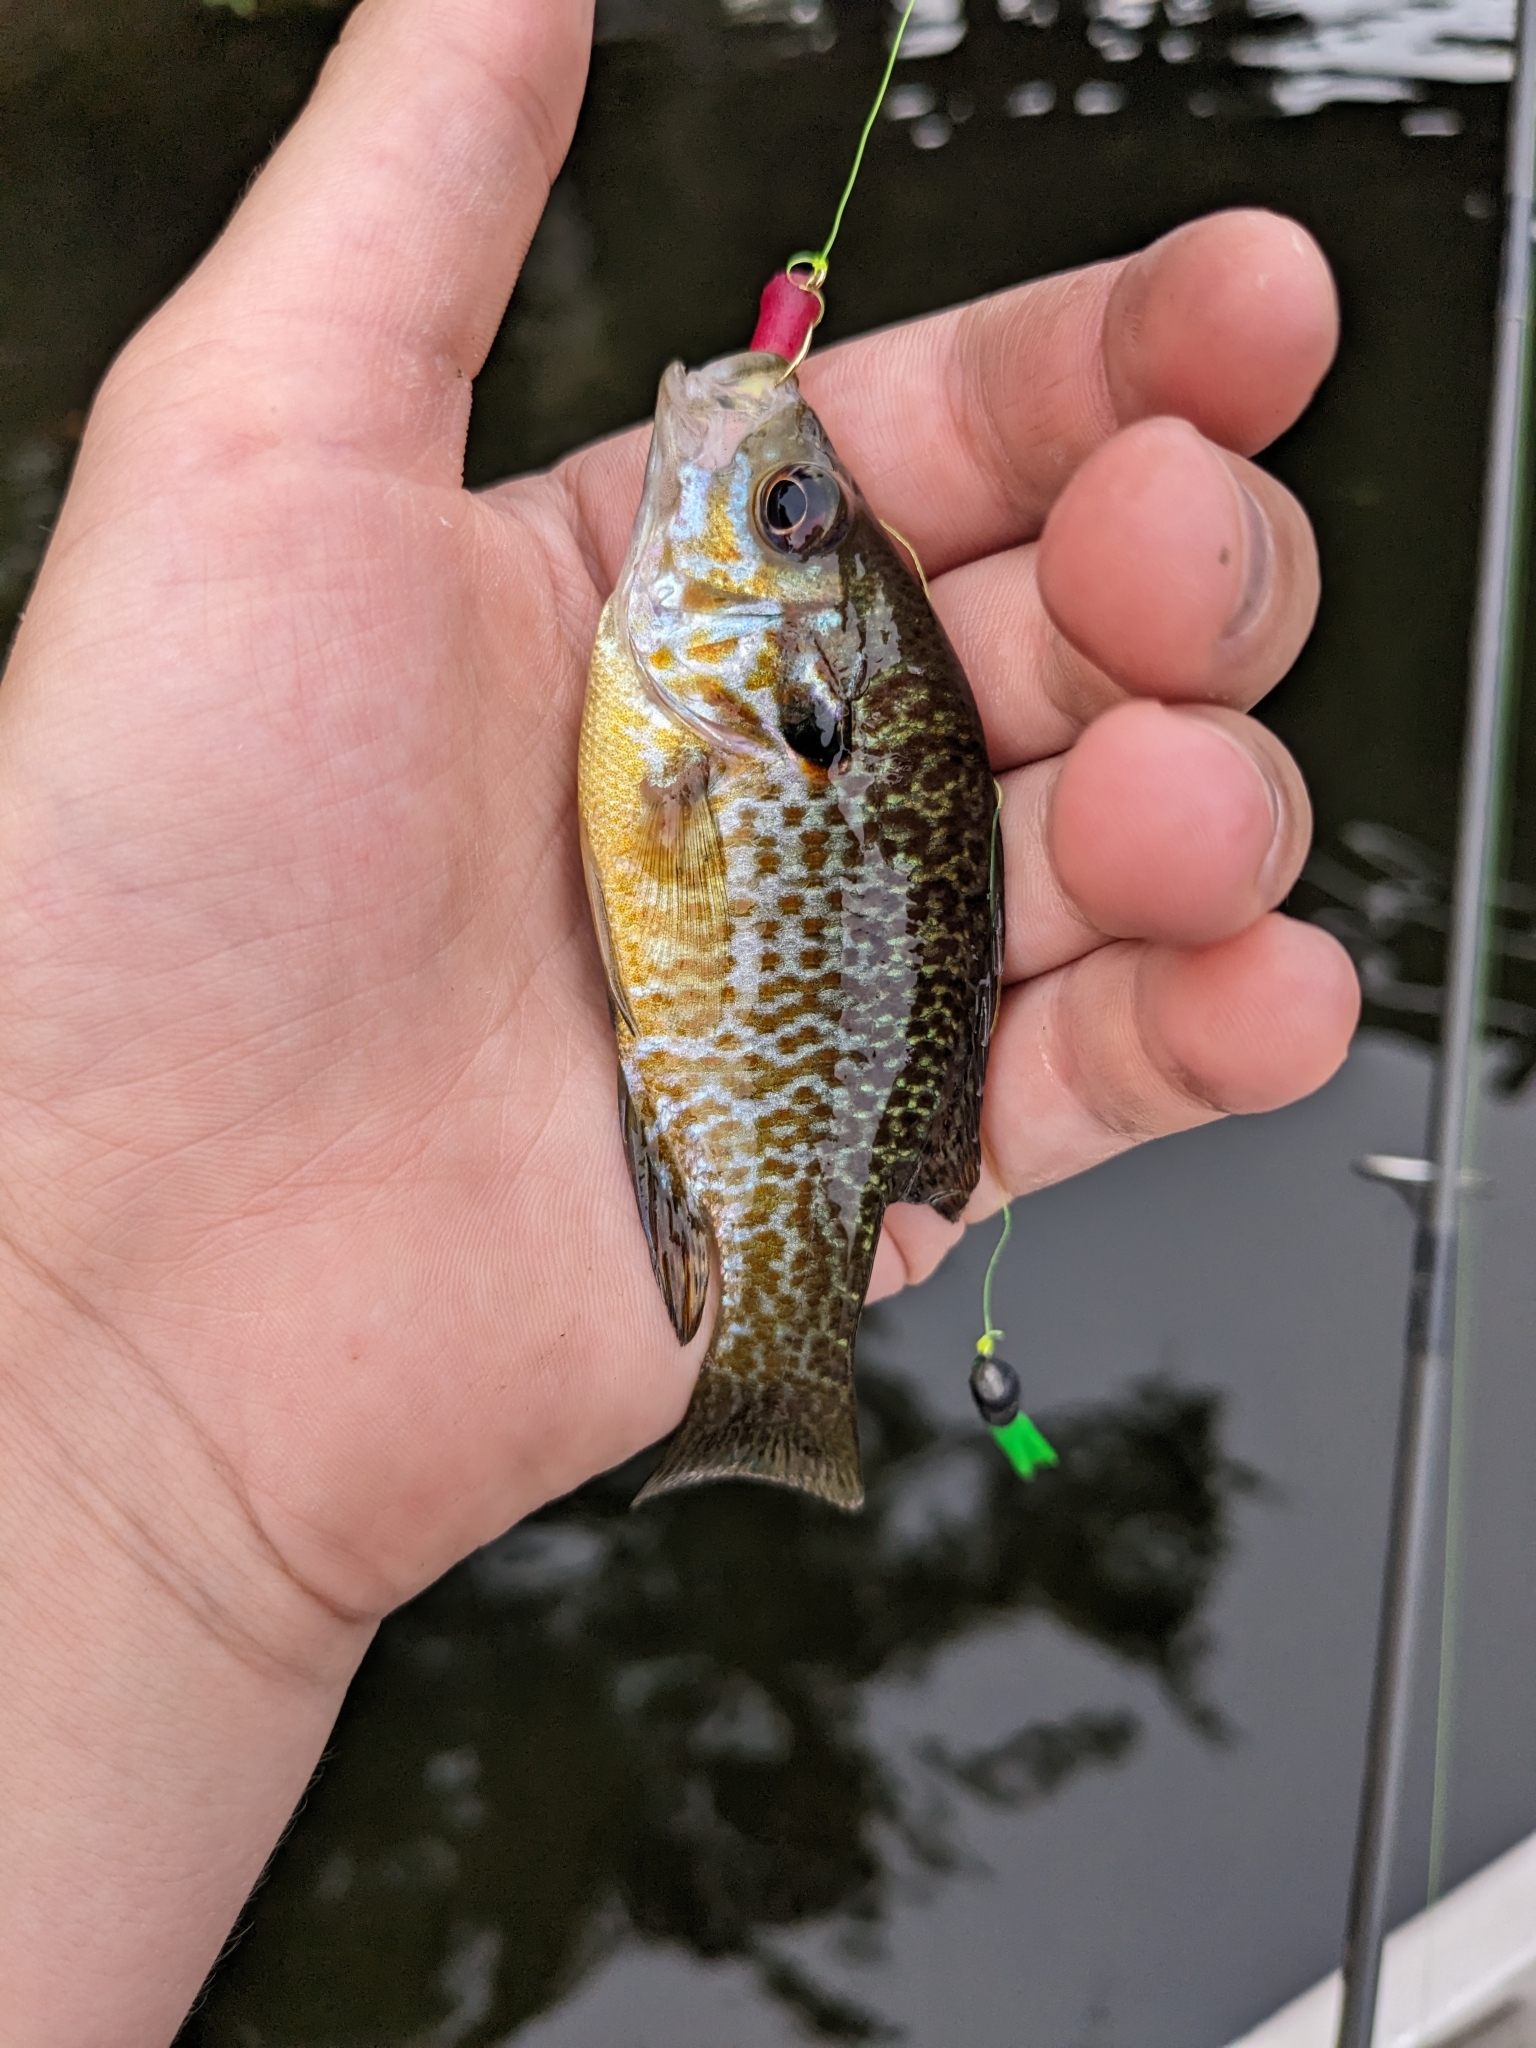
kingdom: Animalia
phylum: Chordata
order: Perciformes
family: Centrarchidae
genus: Lepomis
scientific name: Lepomis
